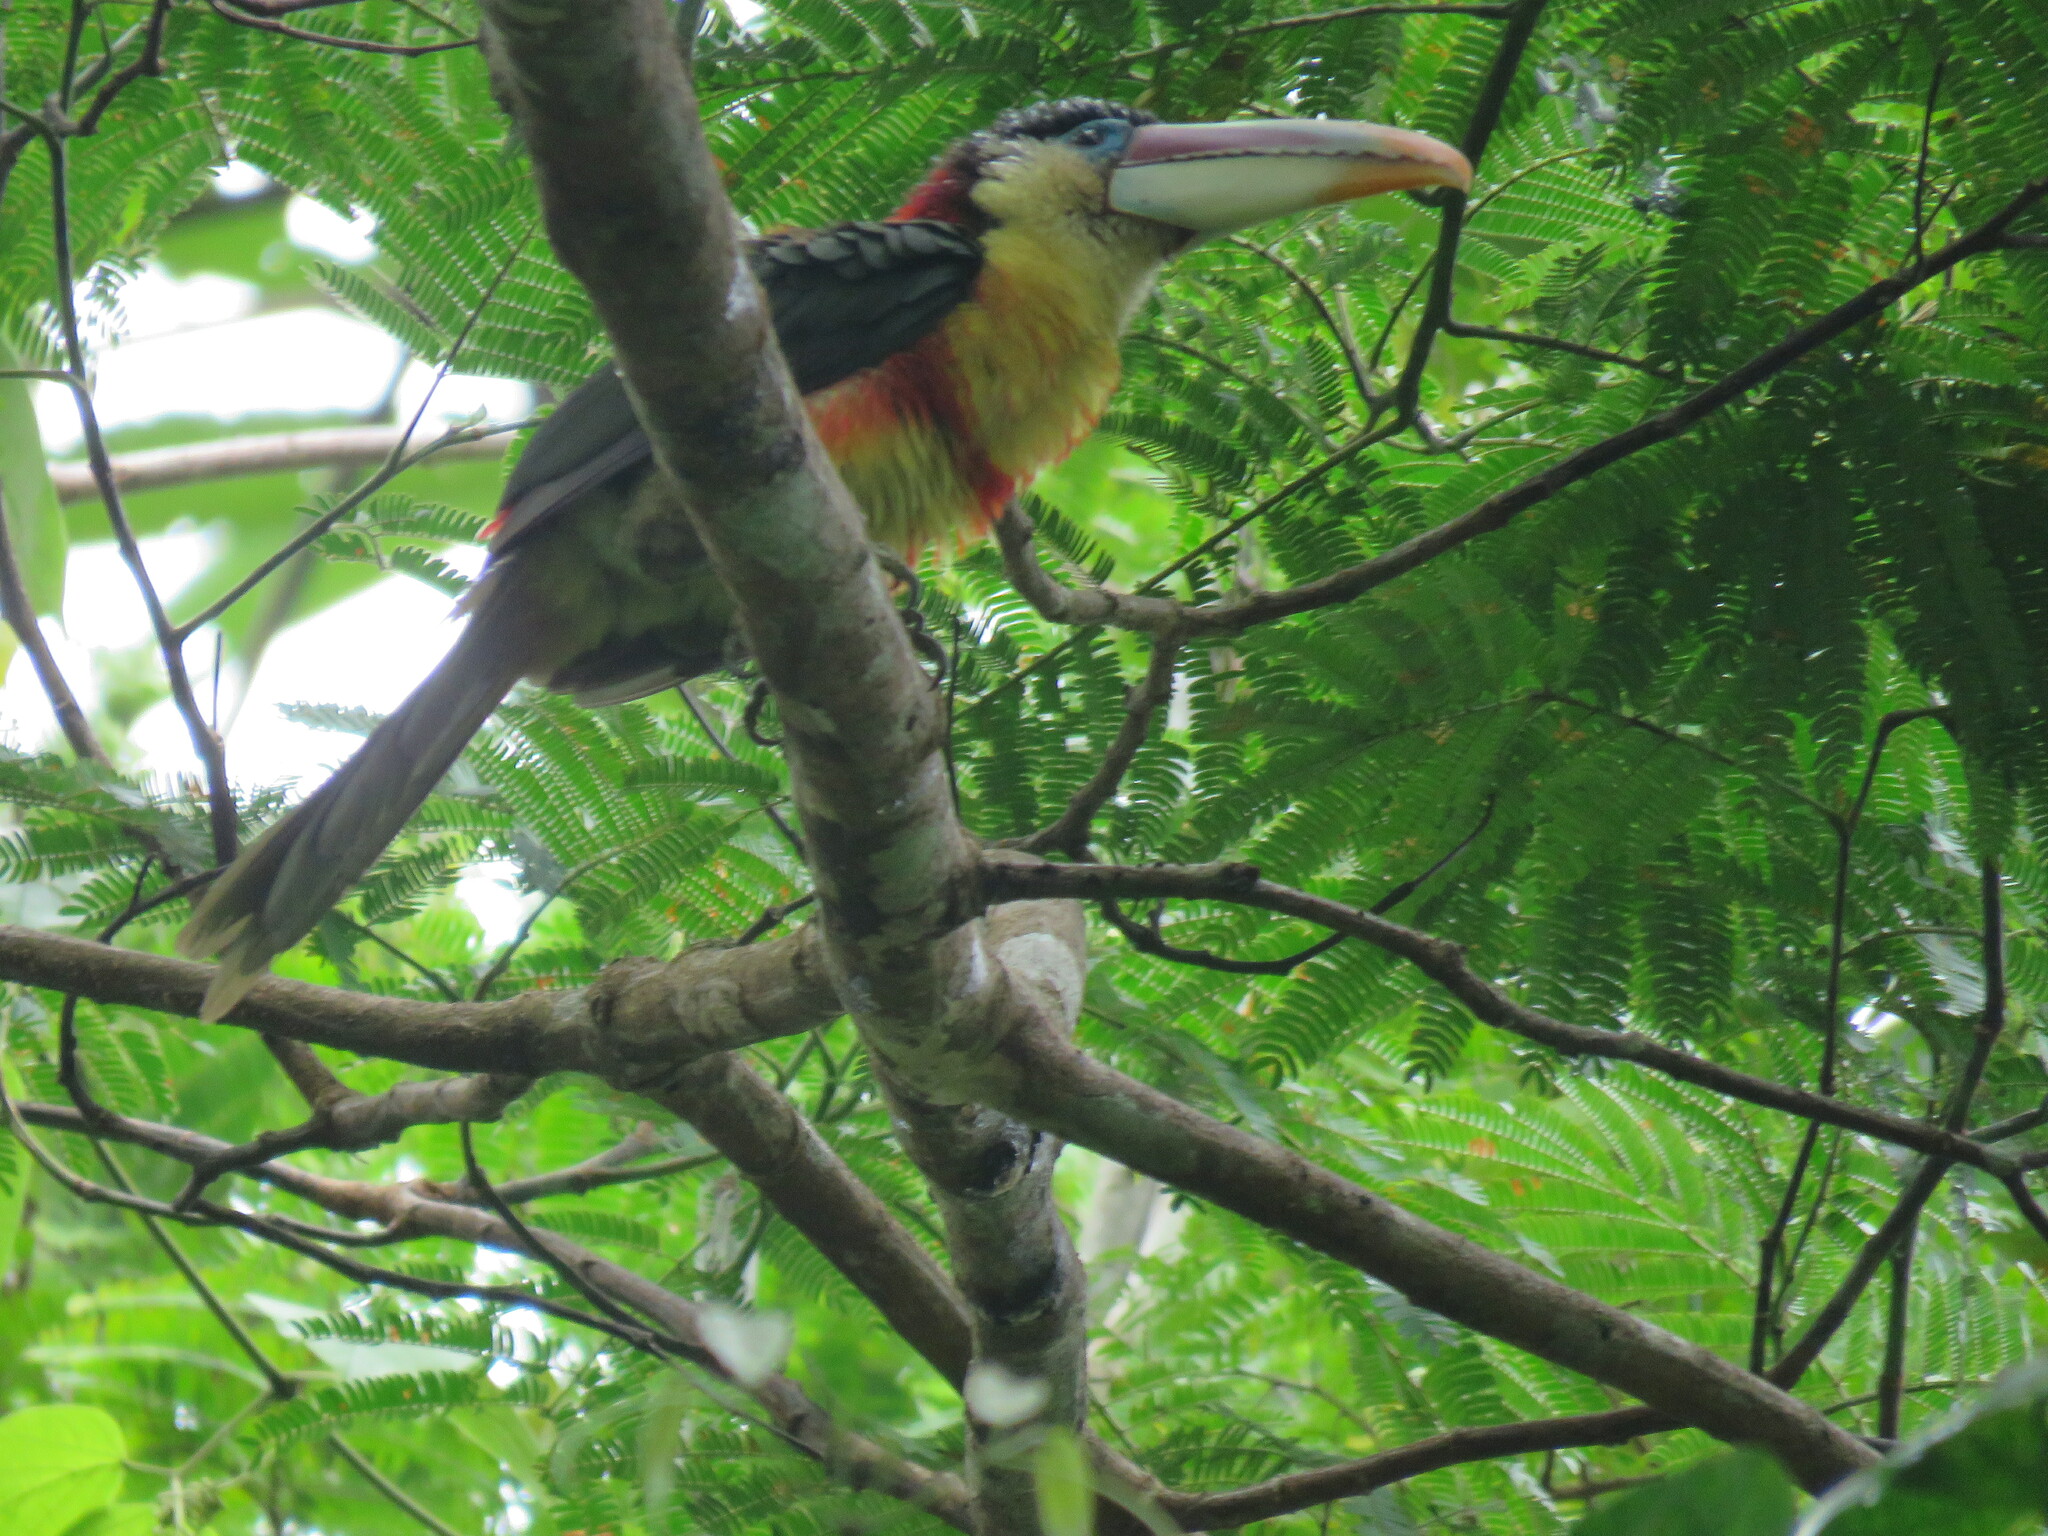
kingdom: Animalia
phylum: Chordata
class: Aves
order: Piciformes
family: Ramphastidae
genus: Pteroglossus
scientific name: Pteroglossus beauharnaisii
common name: Curl-crested aracari
